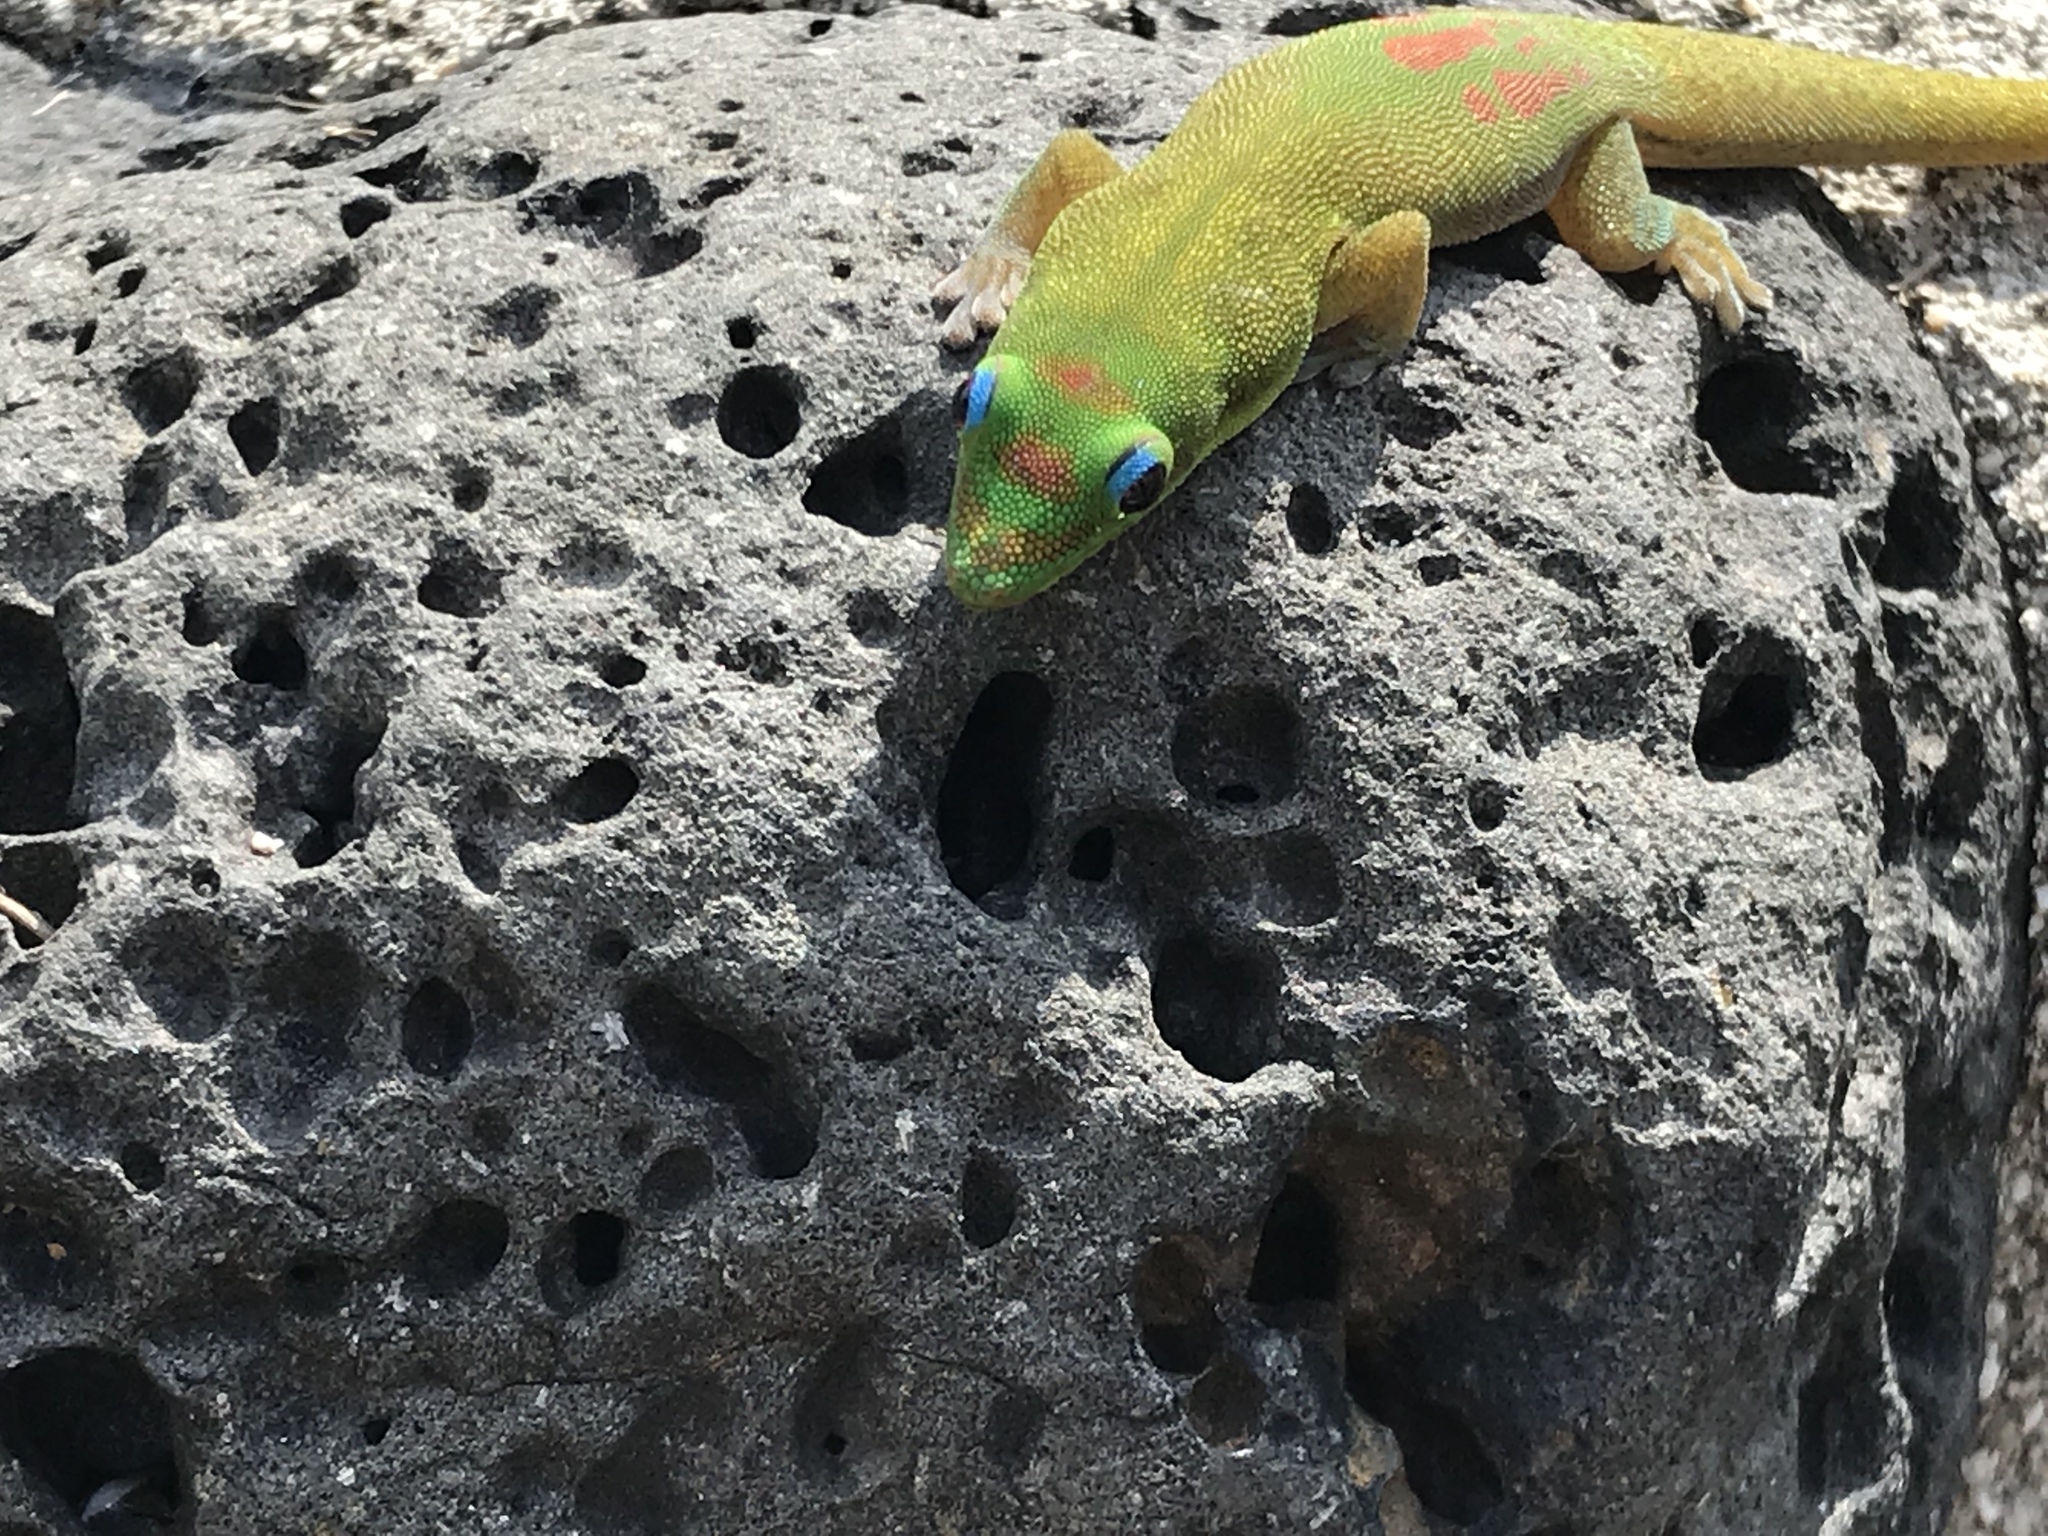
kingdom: Animalia
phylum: Chordata
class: Squamata
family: Gekkonidae
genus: Phelsuma
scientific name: Phelsuma laticauda
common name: Gold dust day gecko
